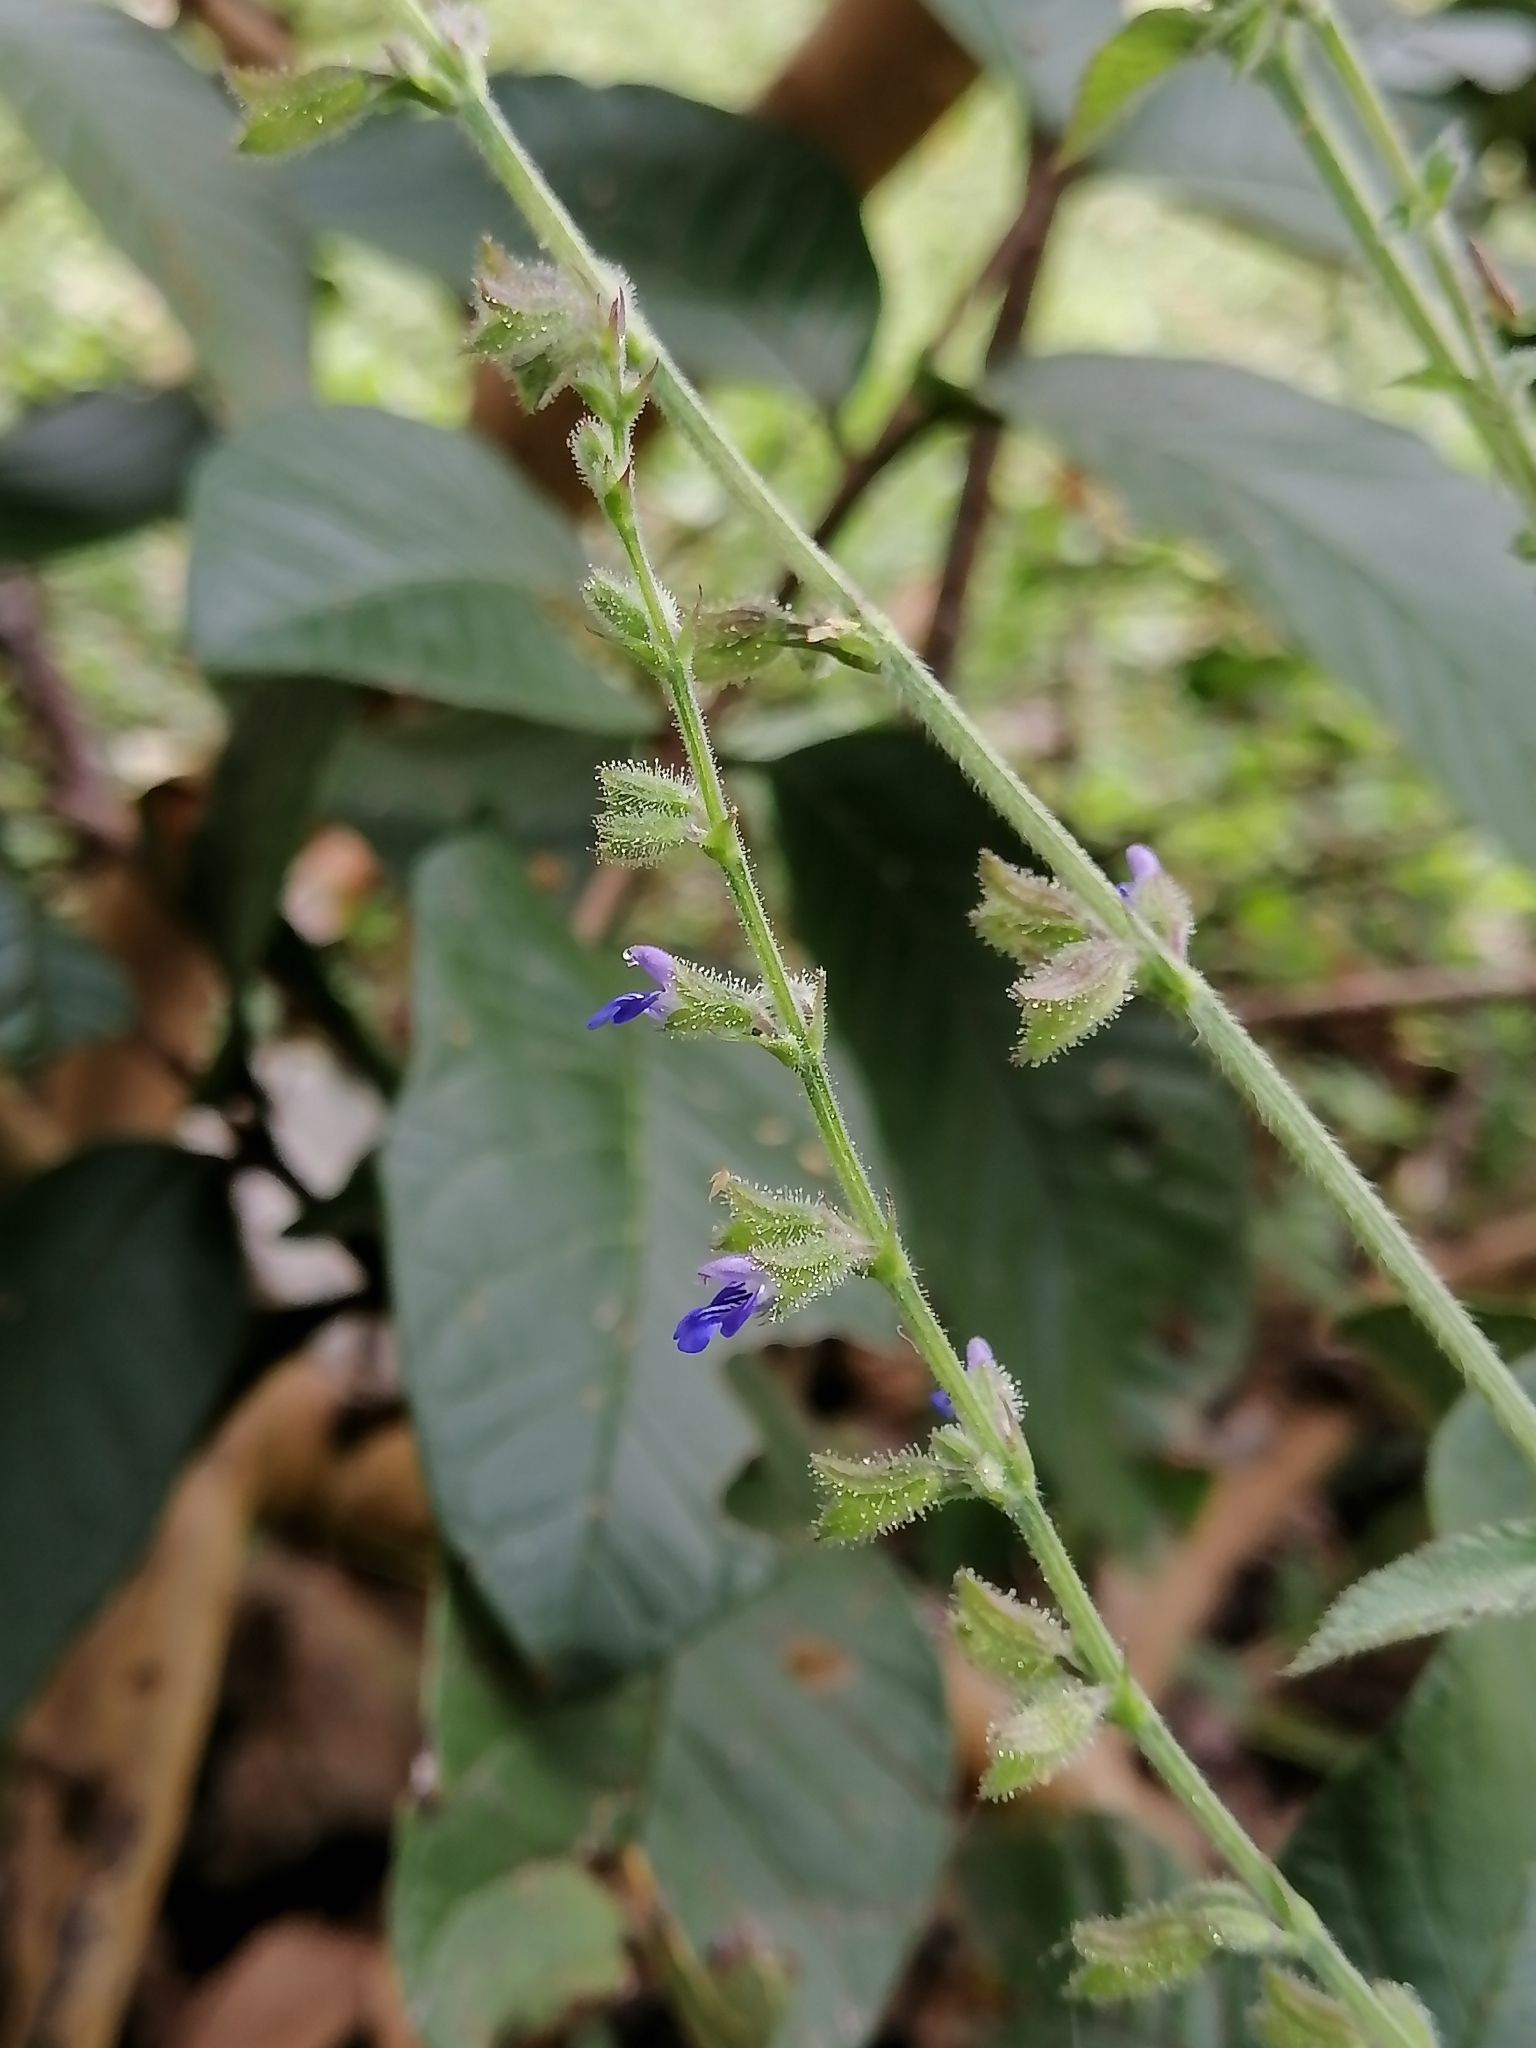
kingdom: Plantae
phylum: Tracheophyta
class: Magnoliopsida
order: Lamiales
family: Lamiaceae
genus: Salvia
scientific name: Salvia misella
